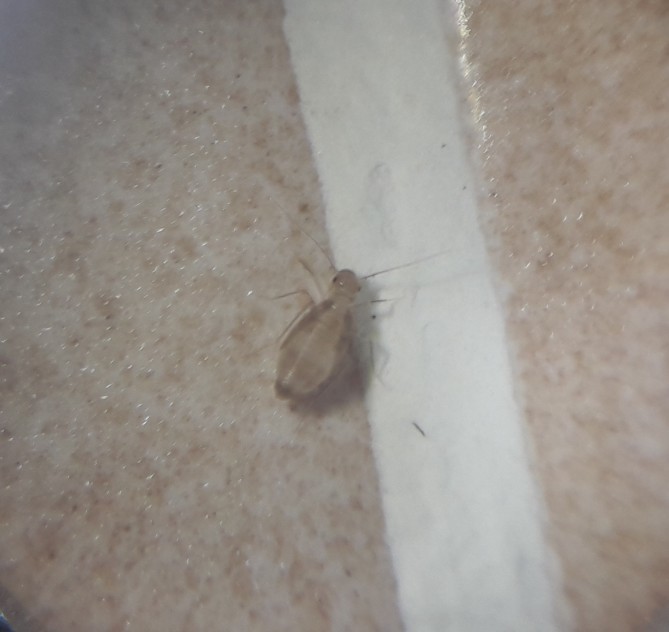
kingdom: Animalia
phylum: Arthropoda
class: Insecta
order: Psocodea
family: Psyllipsocidae
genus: Dorypteryx
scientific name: Dorypteryx
